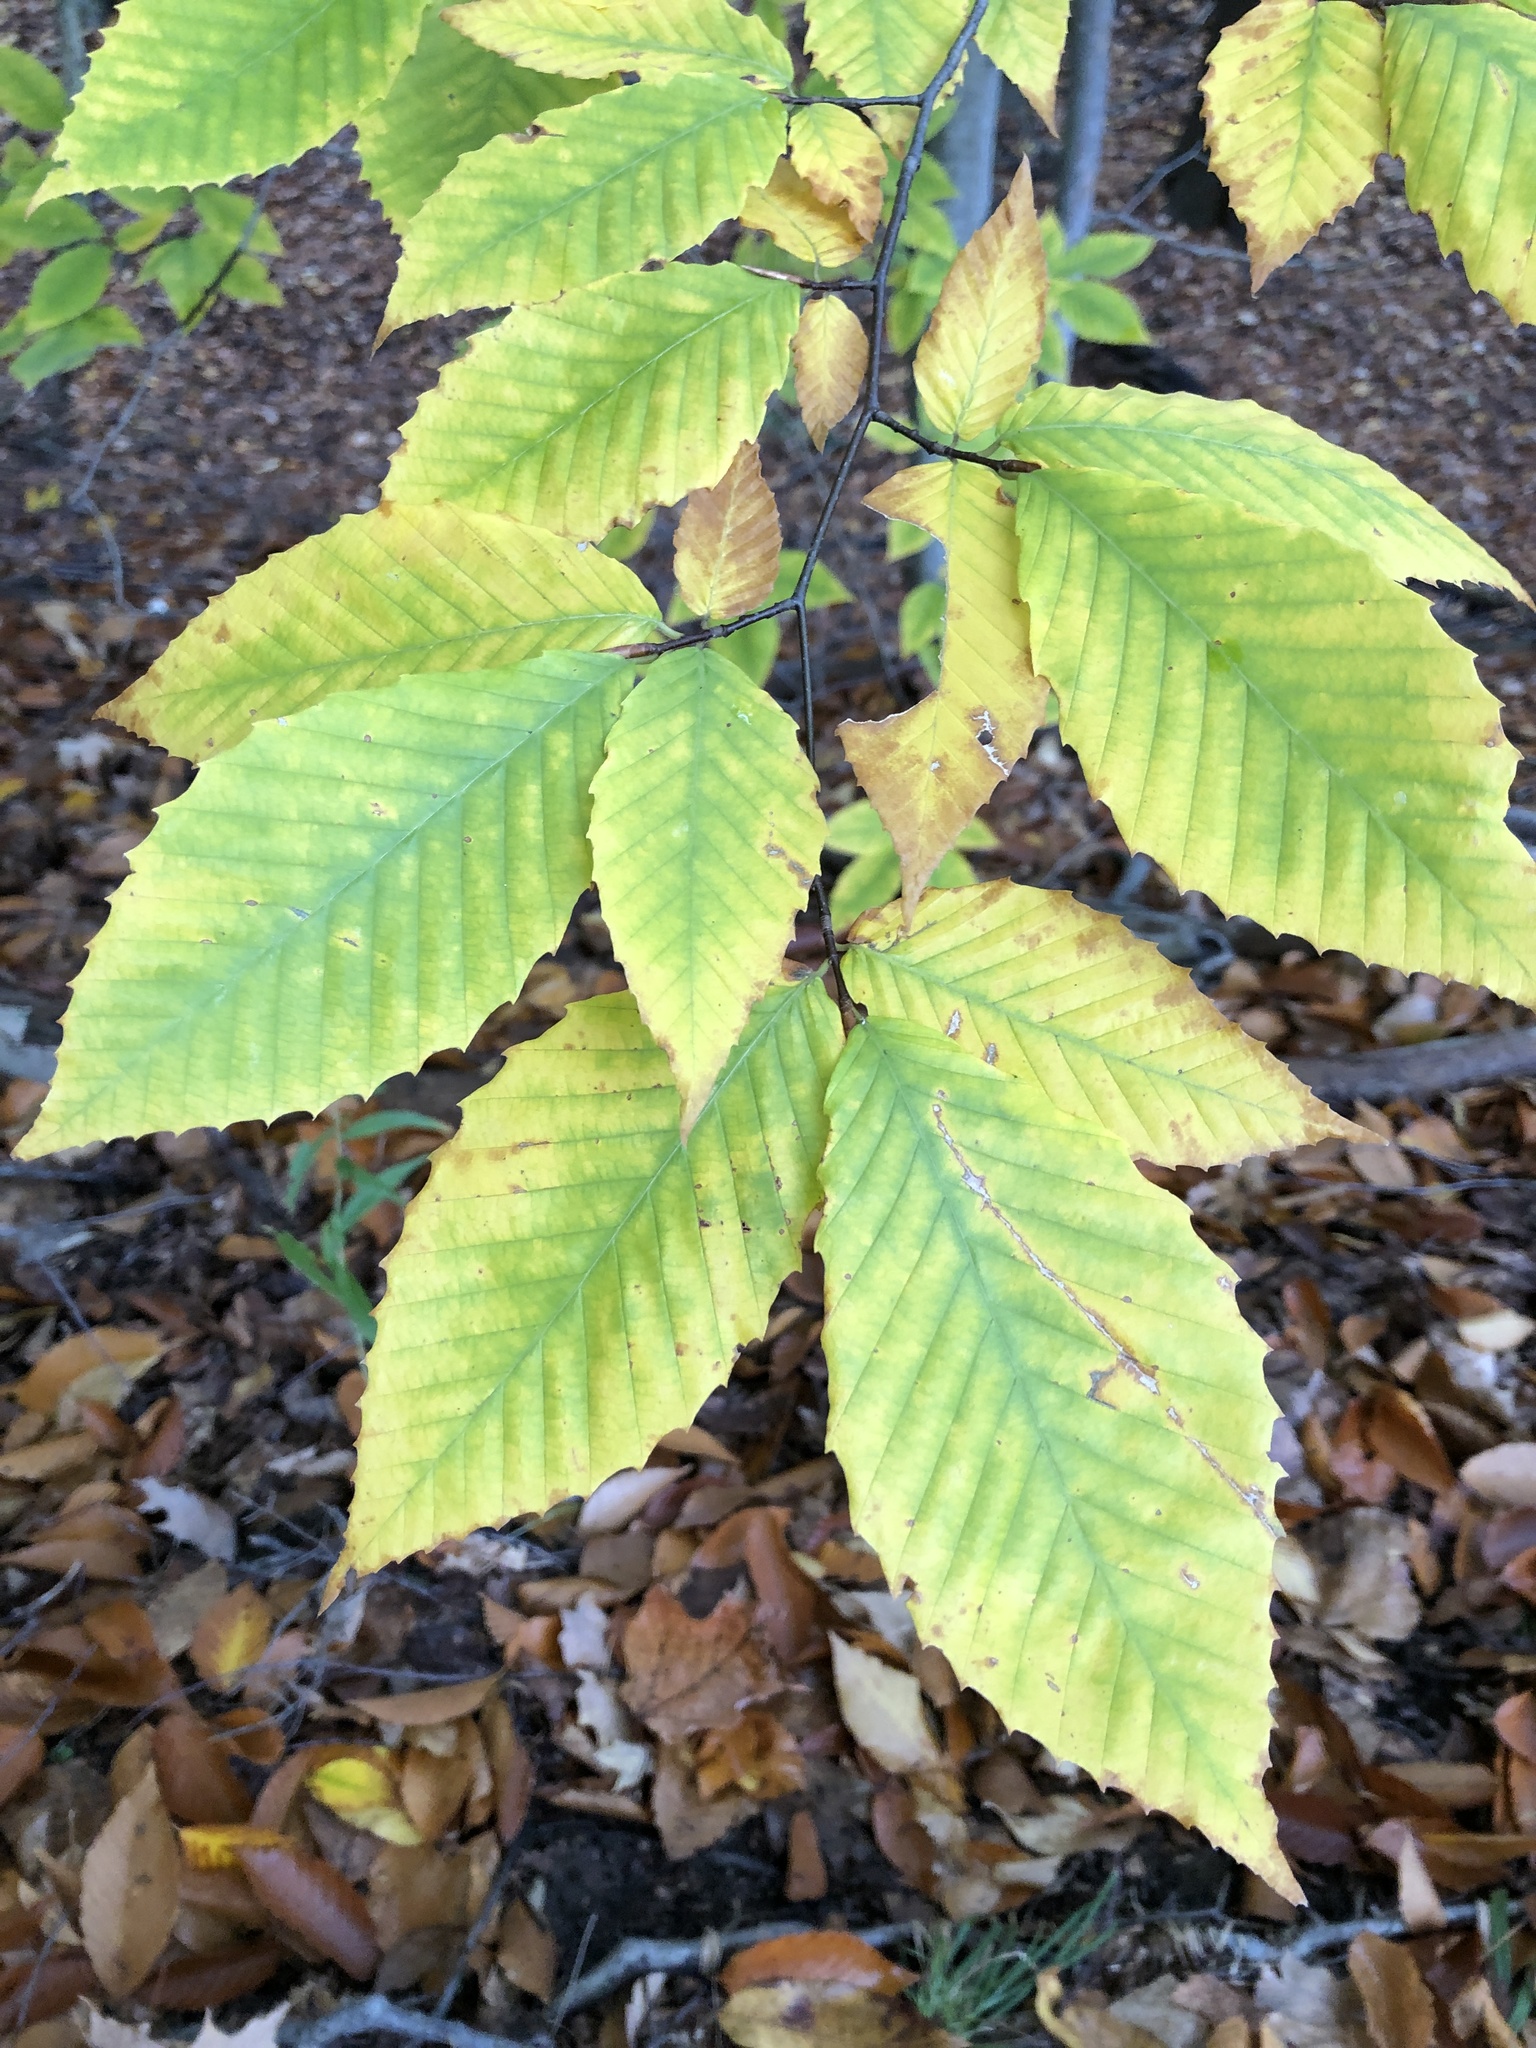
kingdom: Plantae
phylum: Tracheophyta
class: Magnoliopsida
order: Fagales
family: Fagaceae
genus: Fagus
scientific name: Fagus grandifolia
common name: American beech
